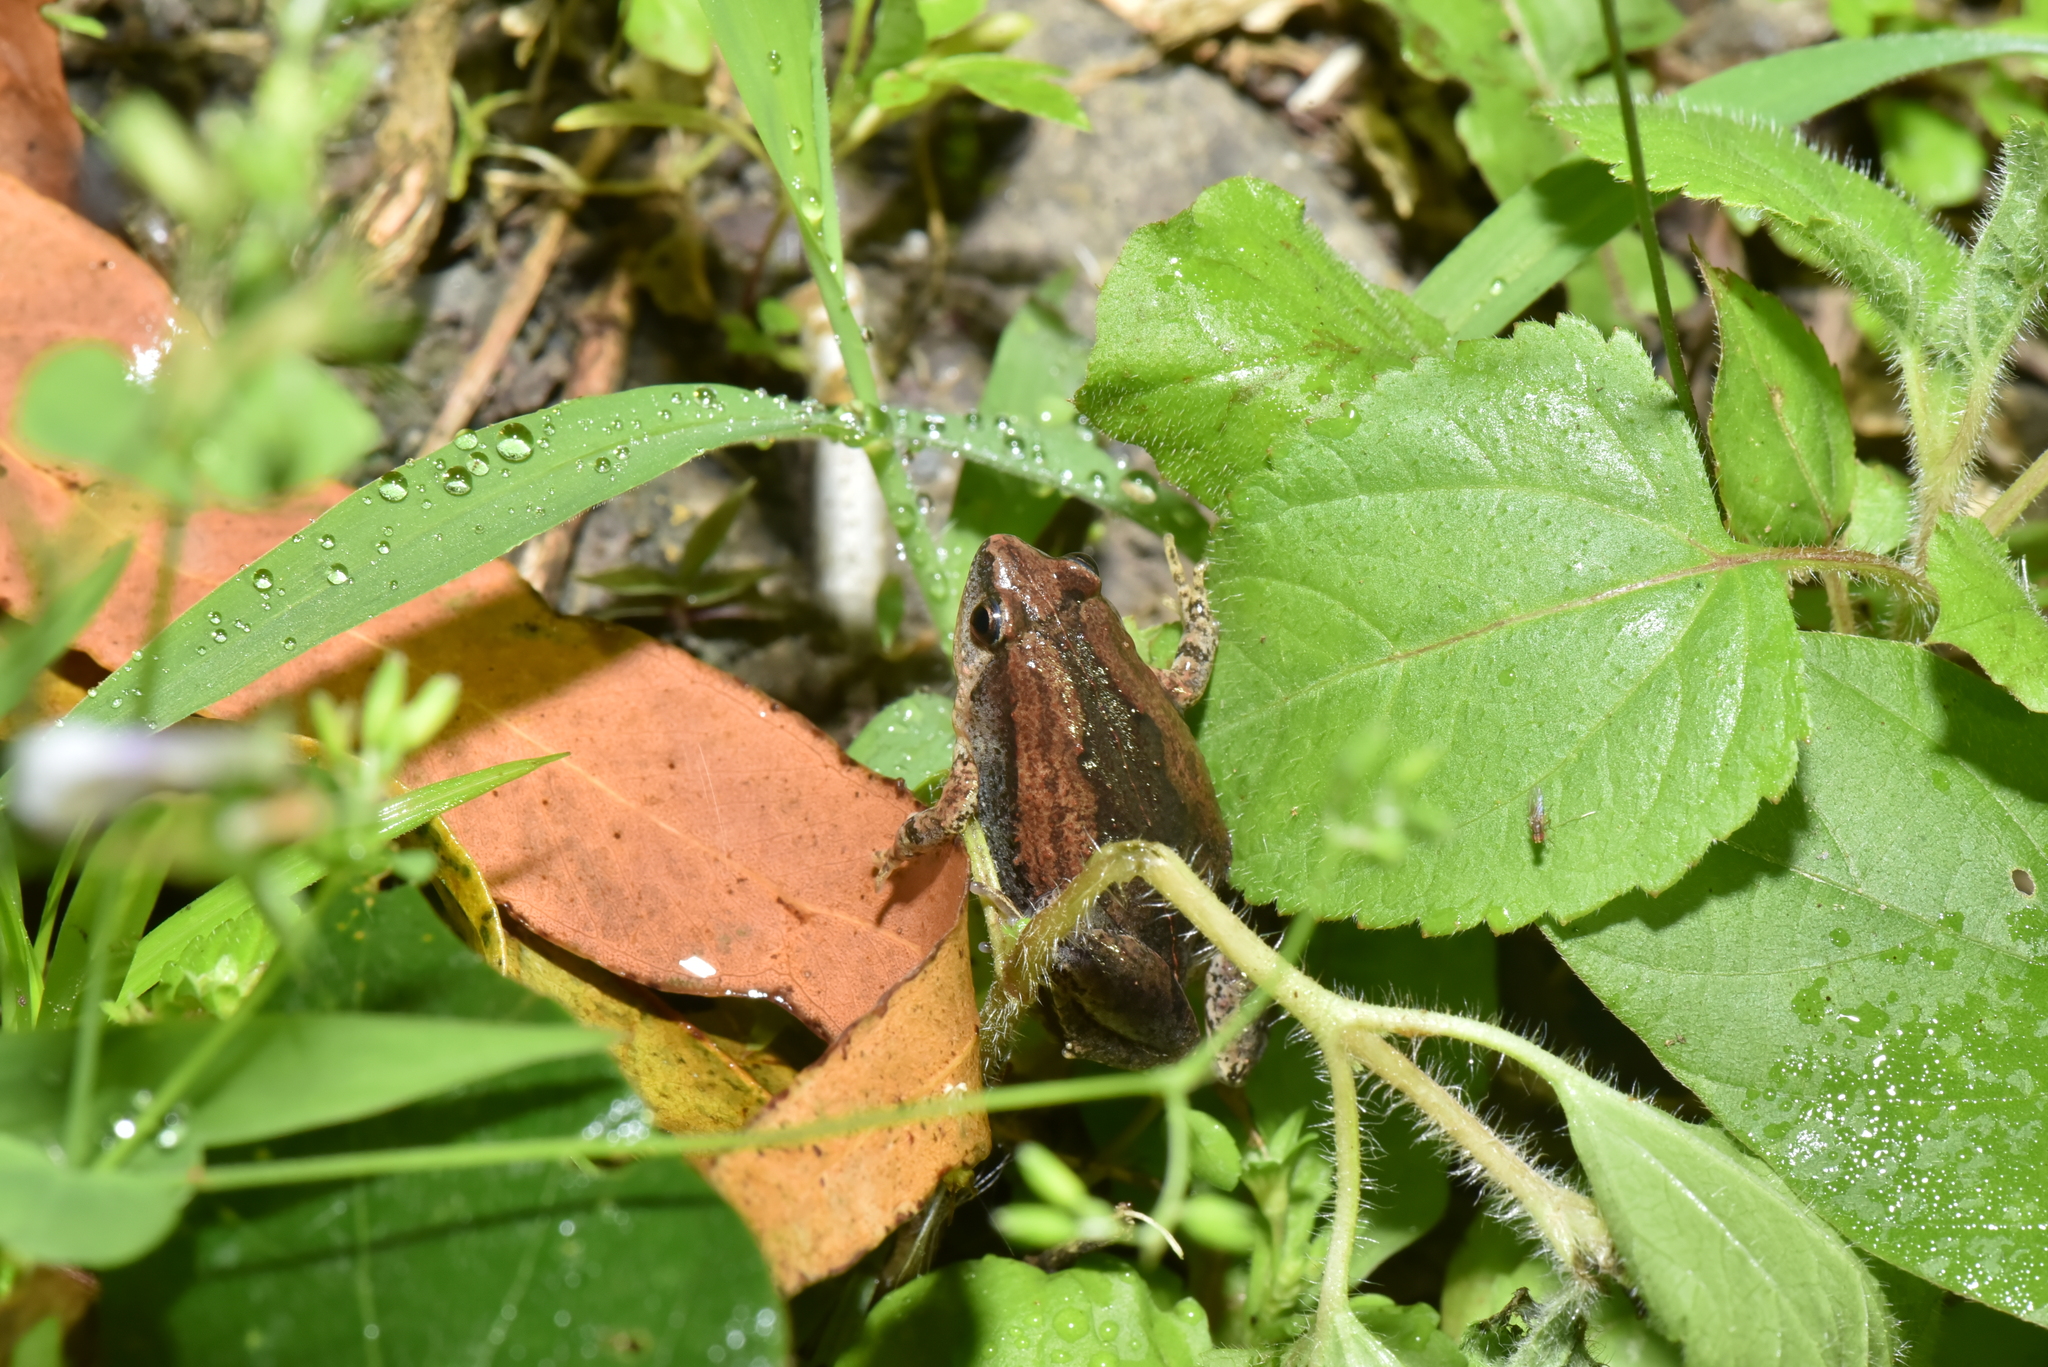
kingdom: Animalia
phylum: Chordata
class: Amphibia
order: Anura
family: Microhylidae
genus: Microhyla
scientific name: Microhyla fissipes
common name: Ornate narrow-mouthed frog
